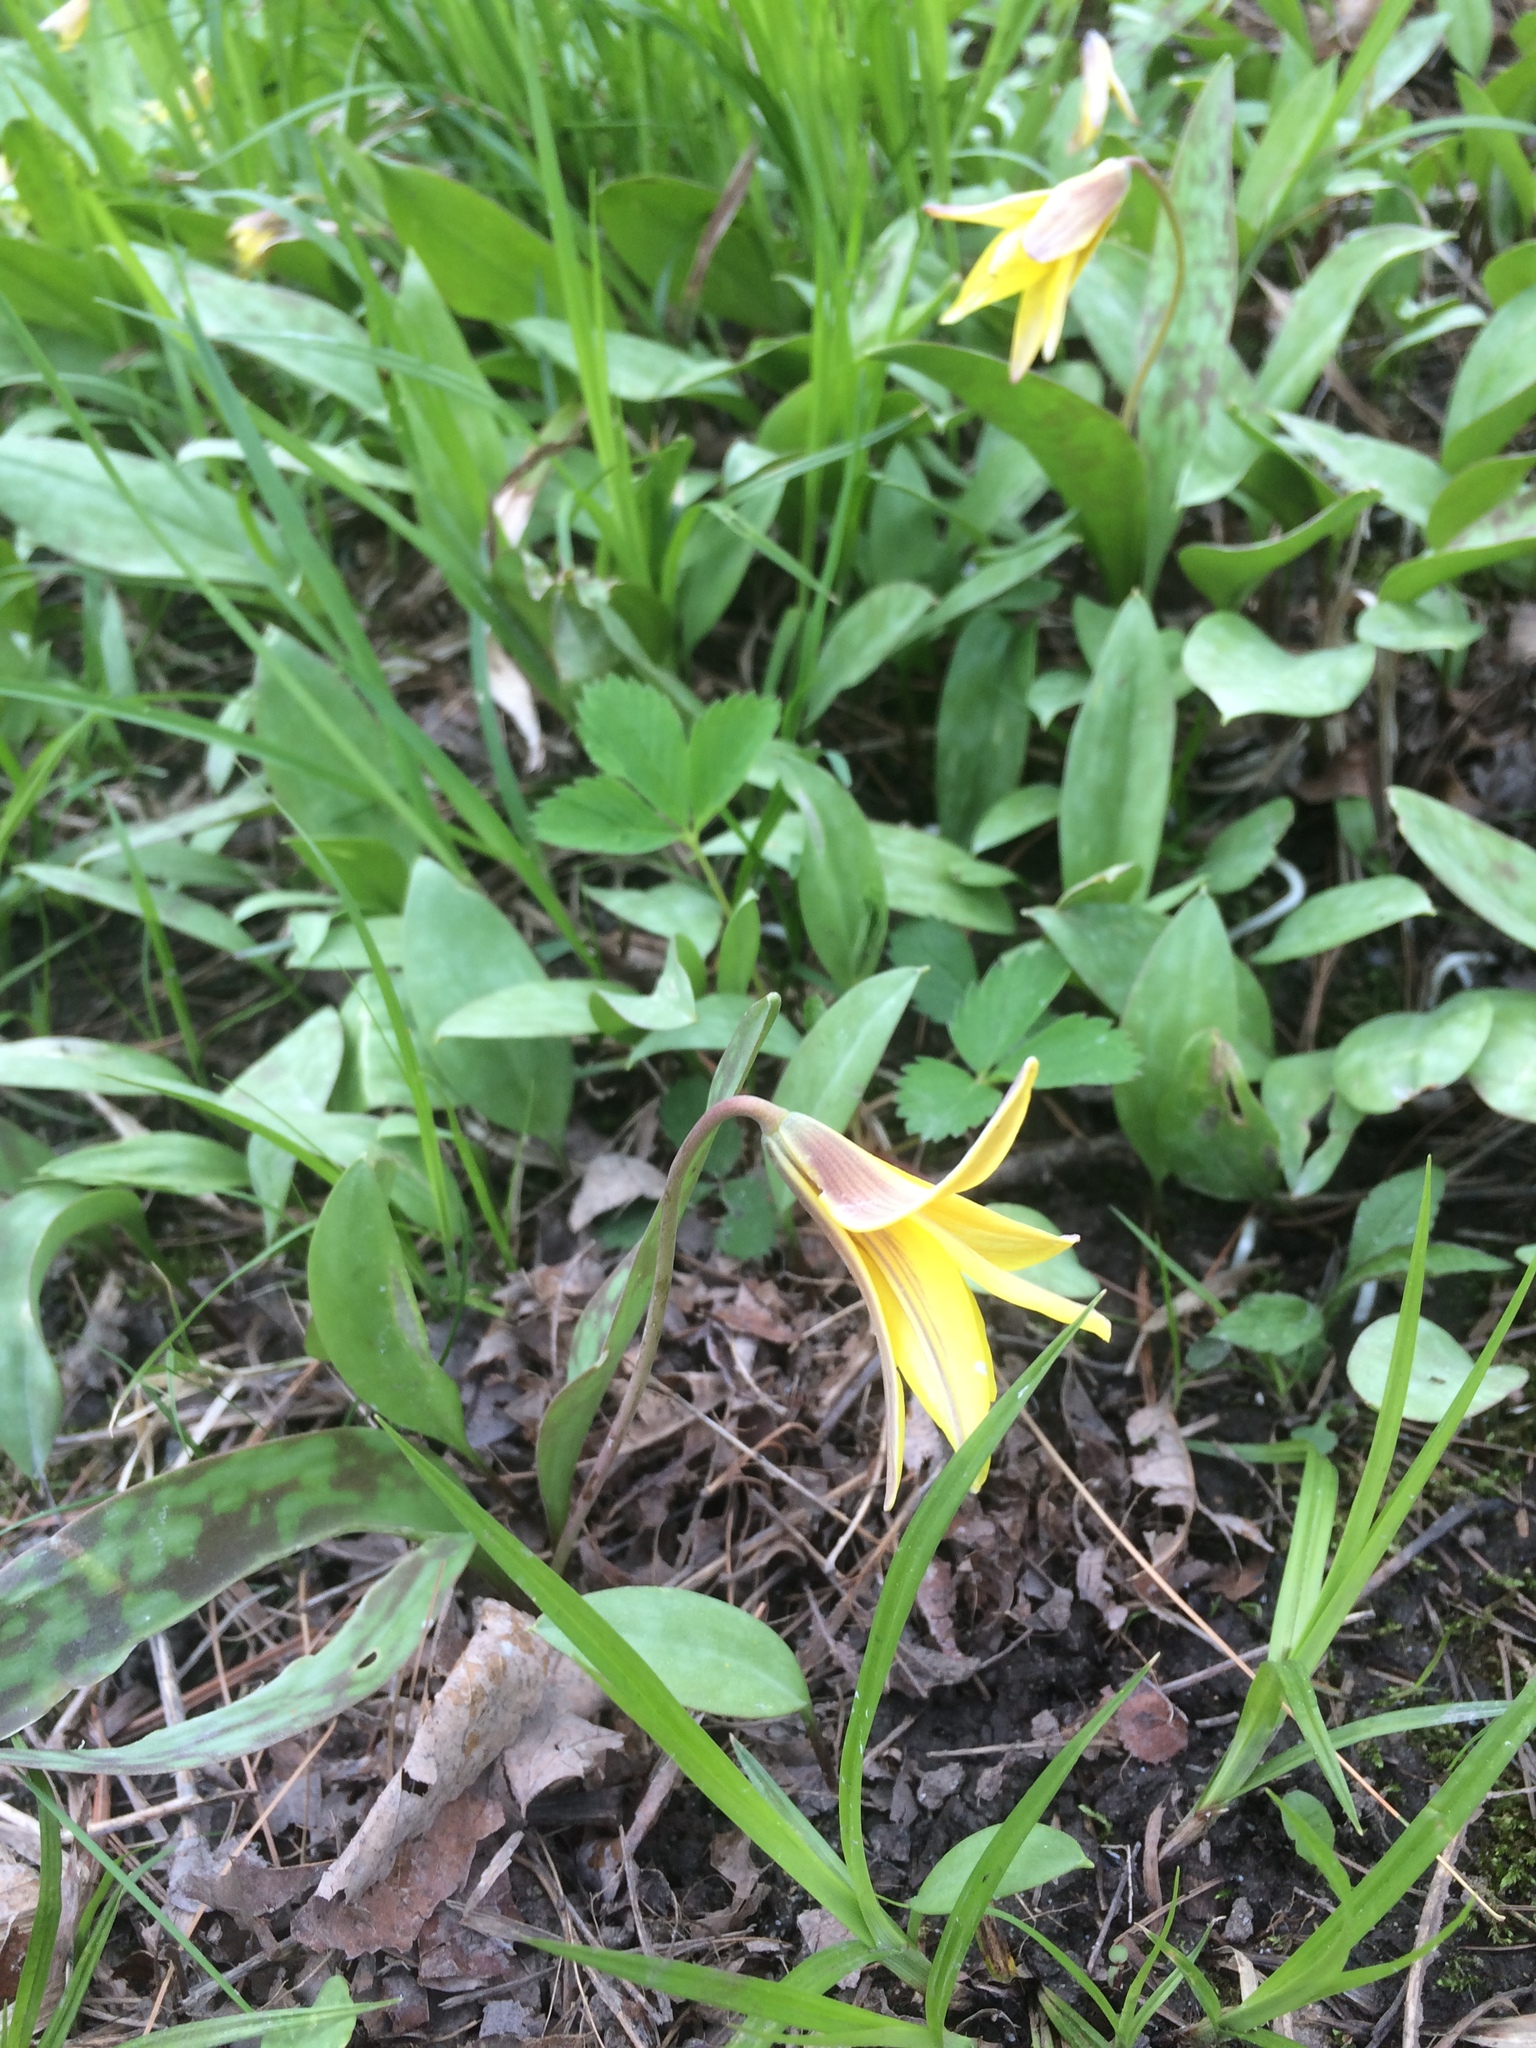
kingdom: Plantae
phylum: Tracheophyta
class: Liliopsida
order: Liliales
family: Liliaceae
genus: Erythronium
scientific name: Erythronium americanum
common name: Yellow adder's-tongue
